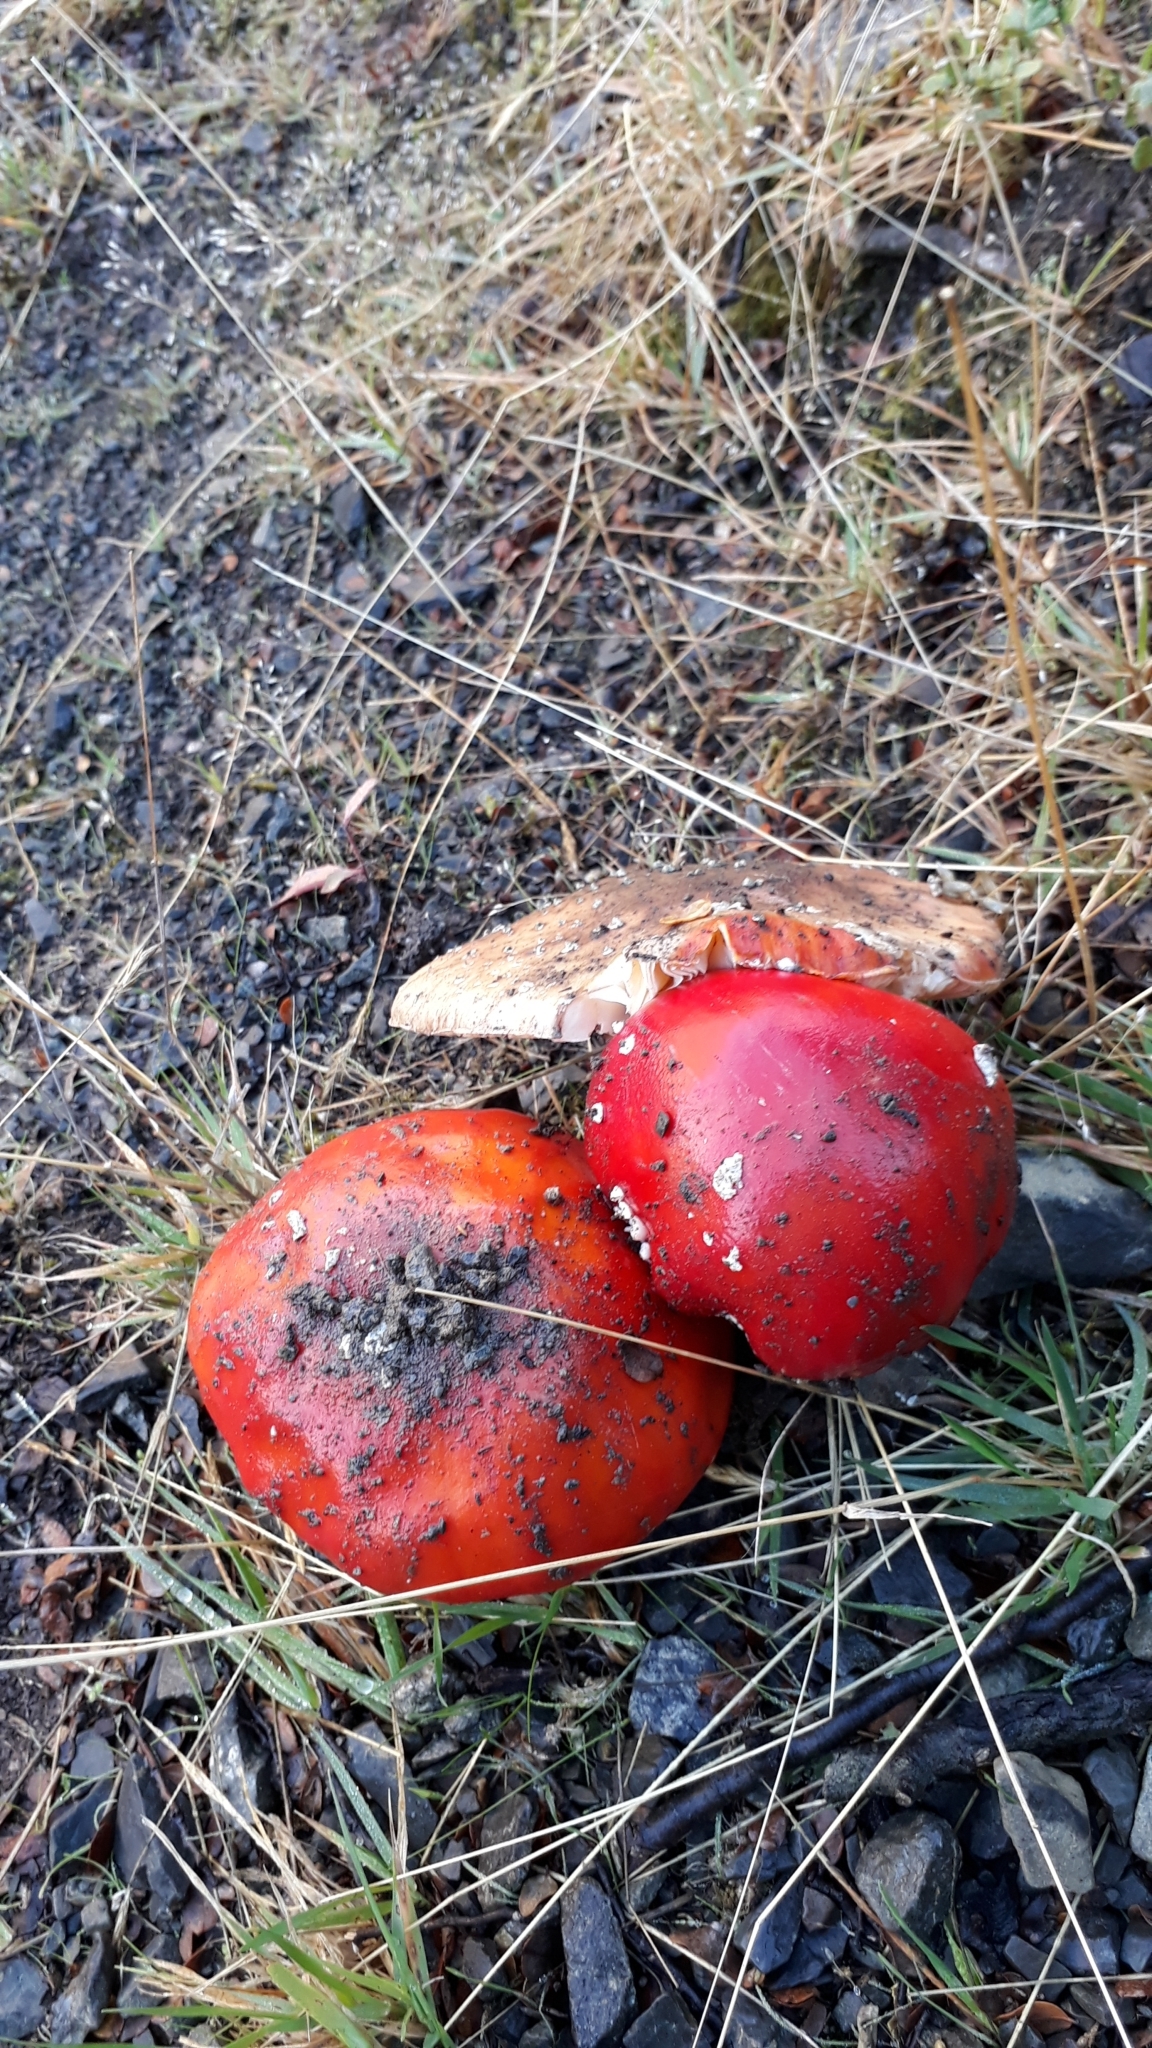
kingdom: Fungi
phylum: Basidiomycota
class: Agaricomycetes
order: Agaricales
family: Amanitaceae
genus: Amanita
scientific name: Amanita muscaria
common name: Fly agaric
